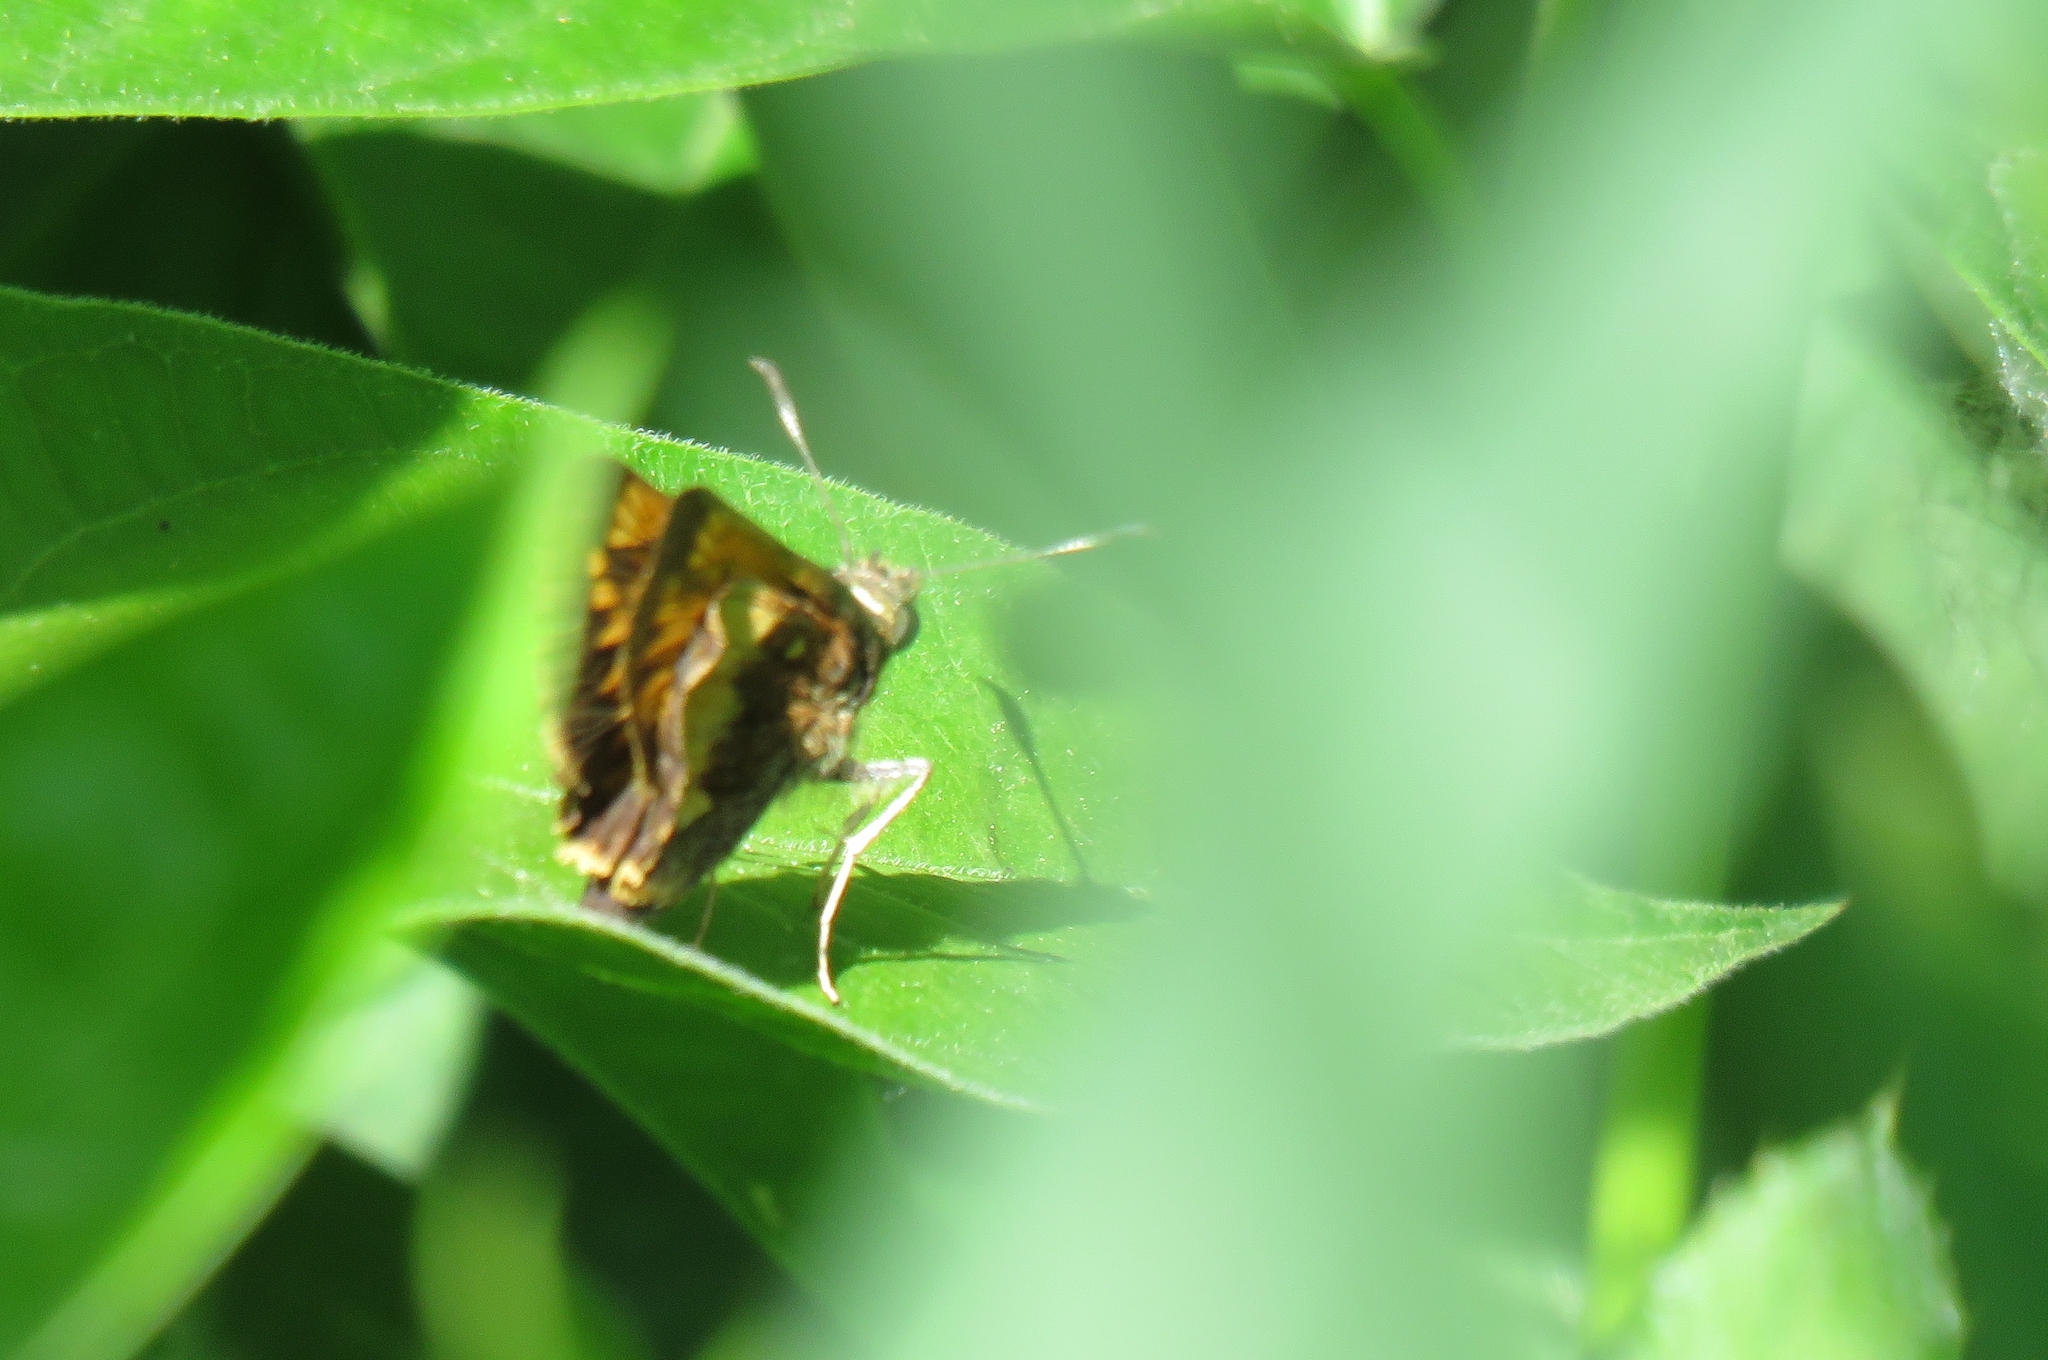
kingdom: Animalia
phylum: Arthropoda
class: Insecta
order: Lepidoptera
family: Hesperiidae
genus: Lon
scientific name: Lon hobomok
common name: Hobomok skipper
